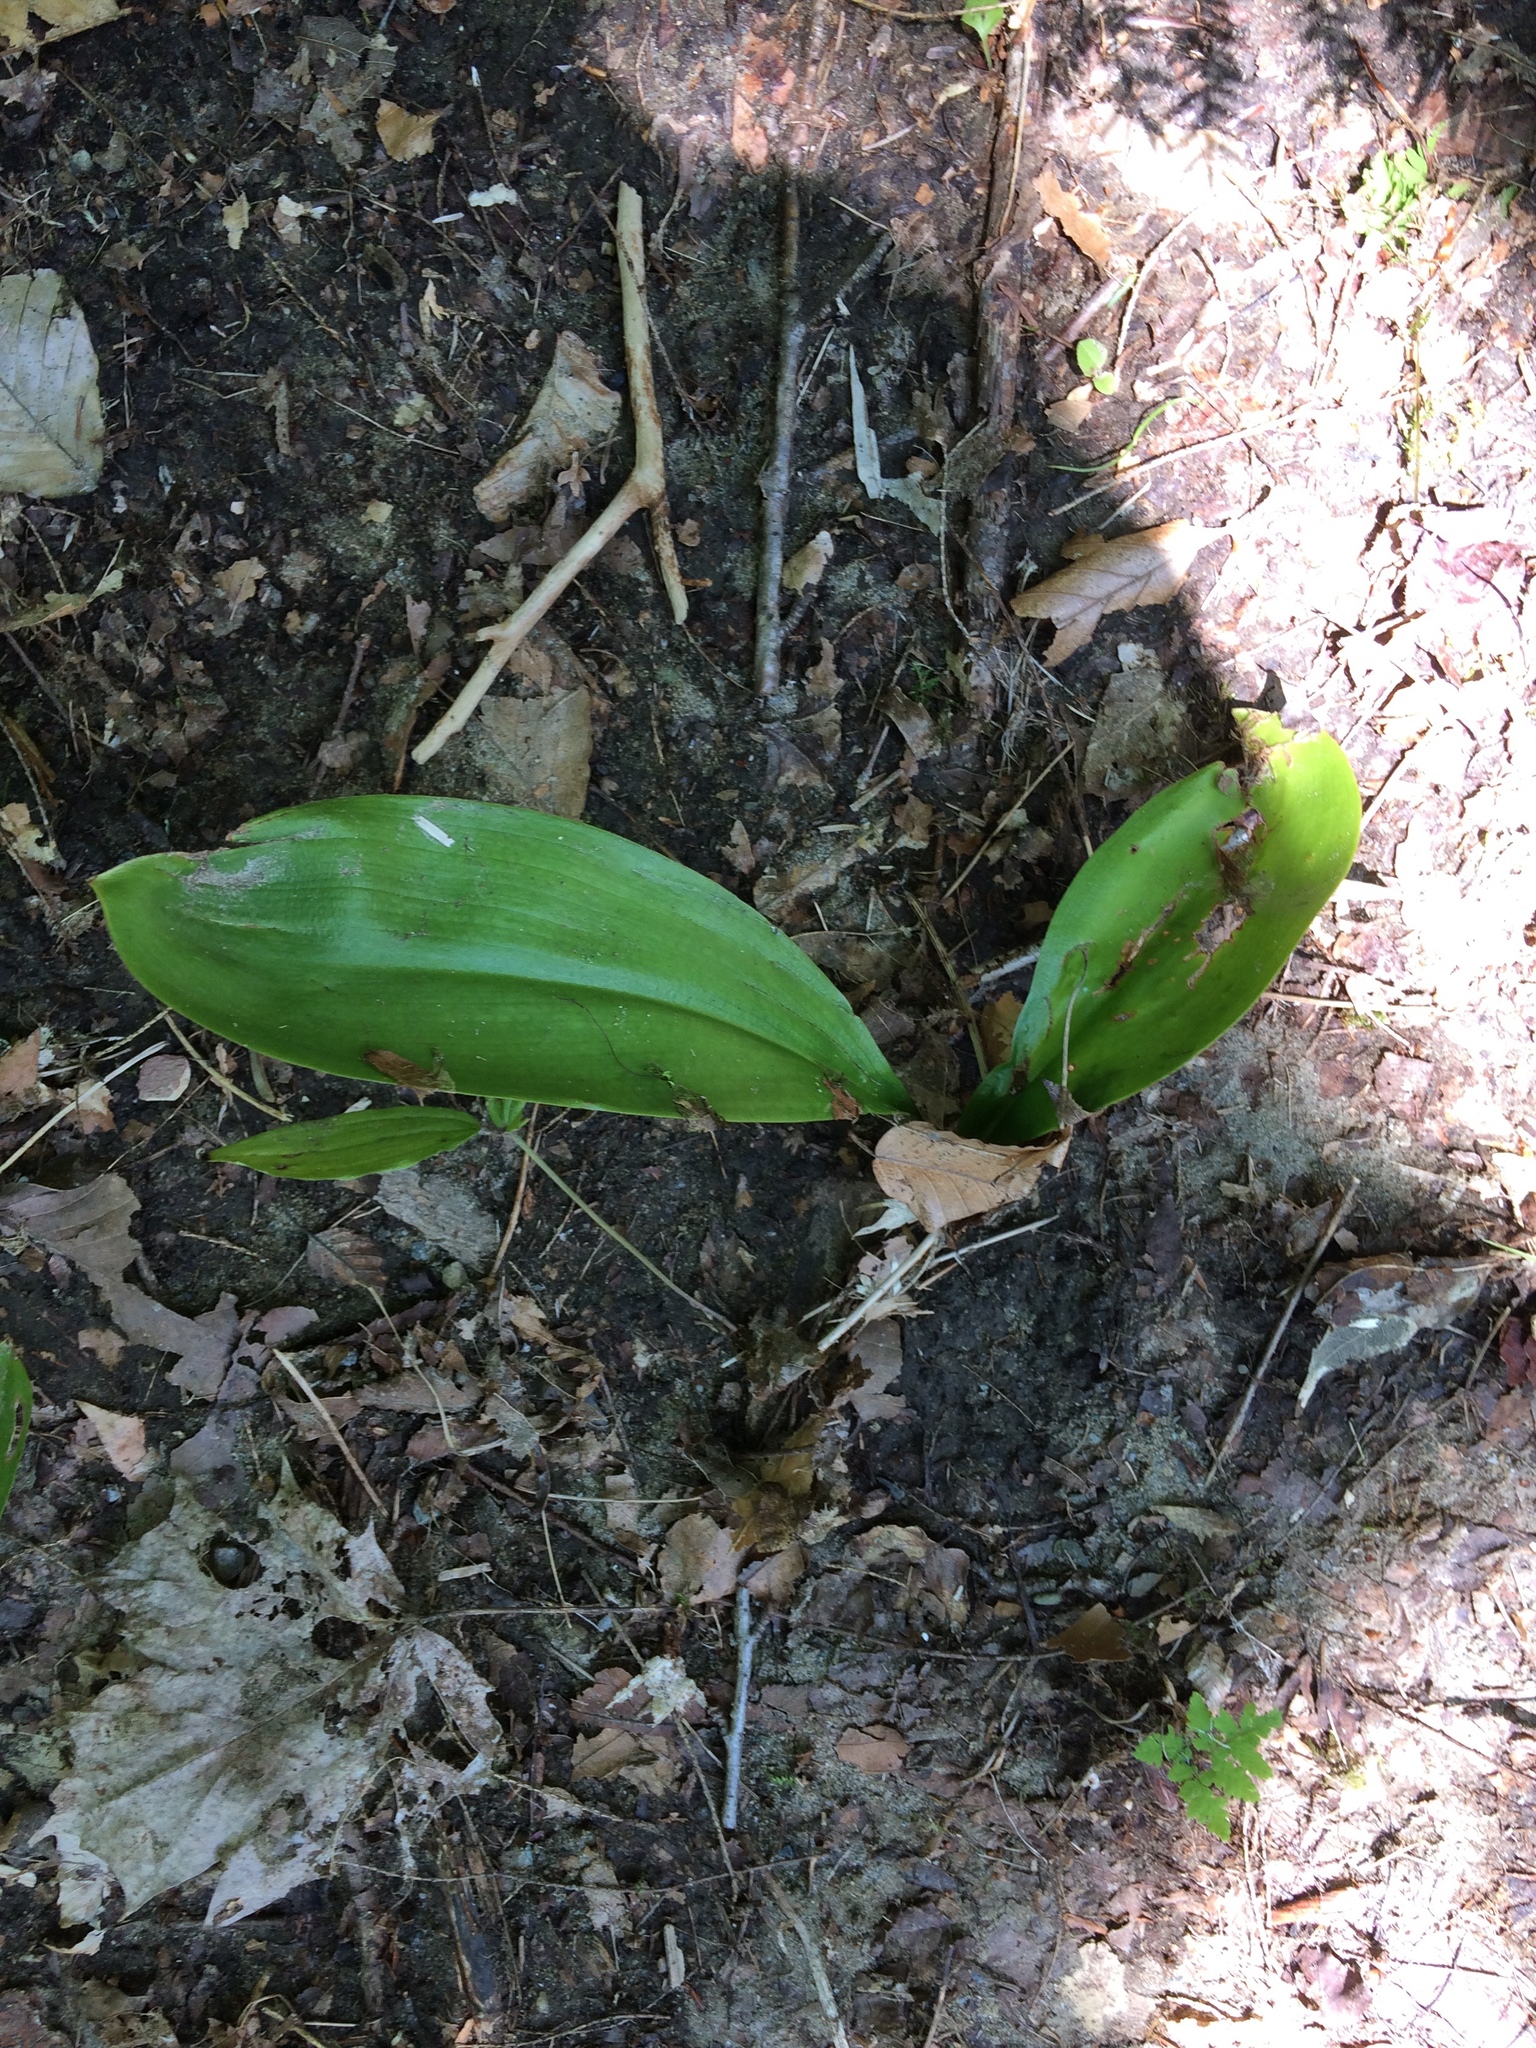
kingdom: Plantae
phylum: Tracheophyta
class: Liliopsida
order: Liliales
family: Liliaceae
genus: Clintonia
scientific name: Clintonia borealis
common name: Yellow clintonia
